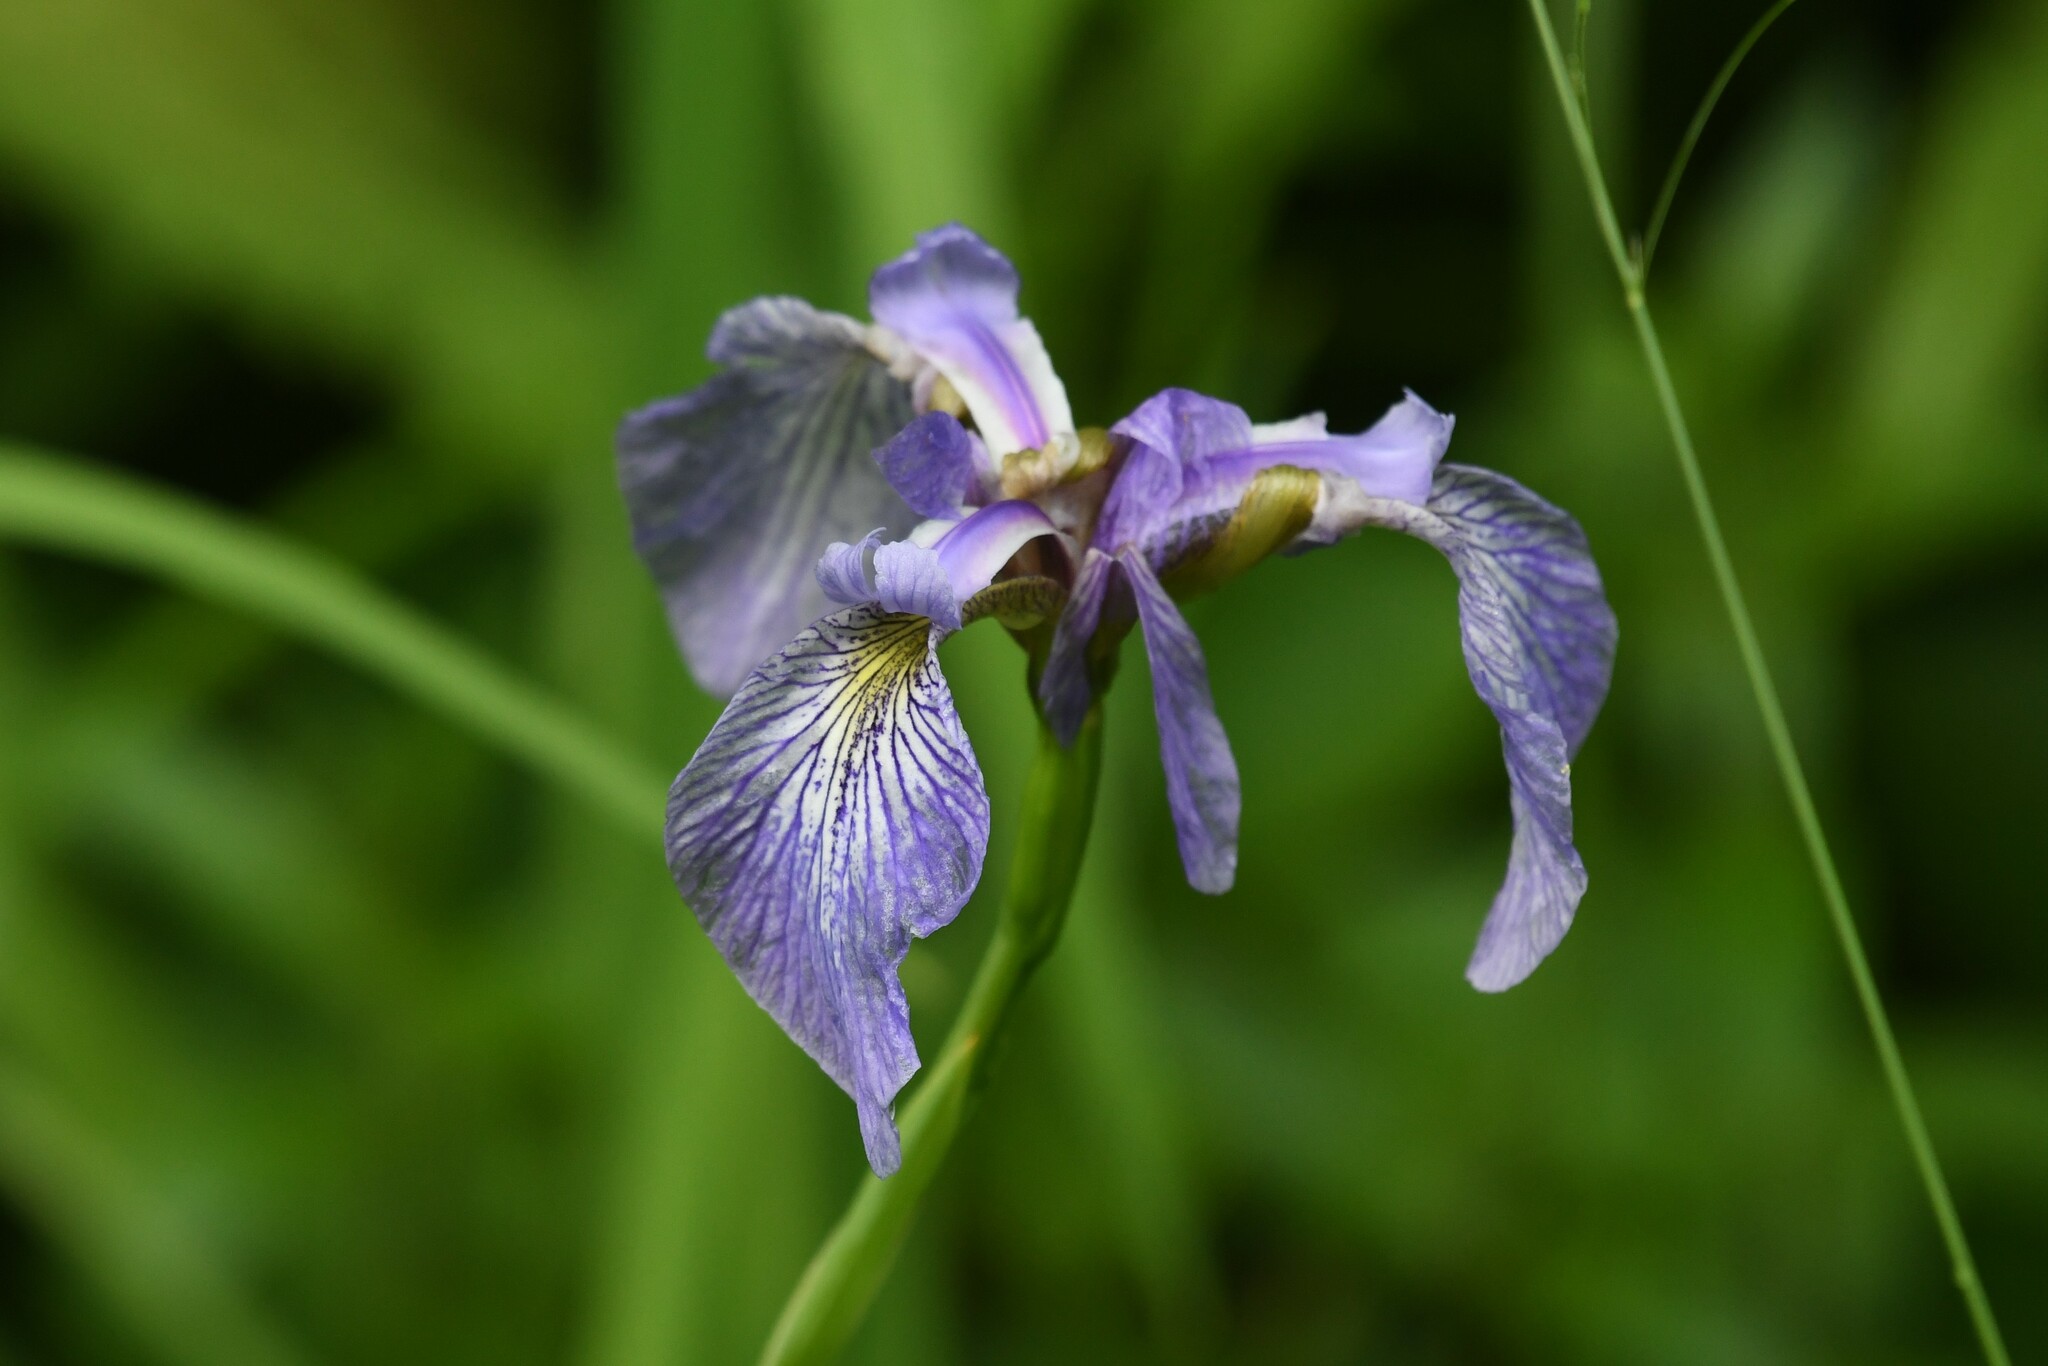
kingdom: Plantae
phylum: Tracheophyta
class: Liliopsida
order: Asparagales
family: Iridaceae
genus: Iris
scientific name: Iris versicolor
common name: Purple iris
